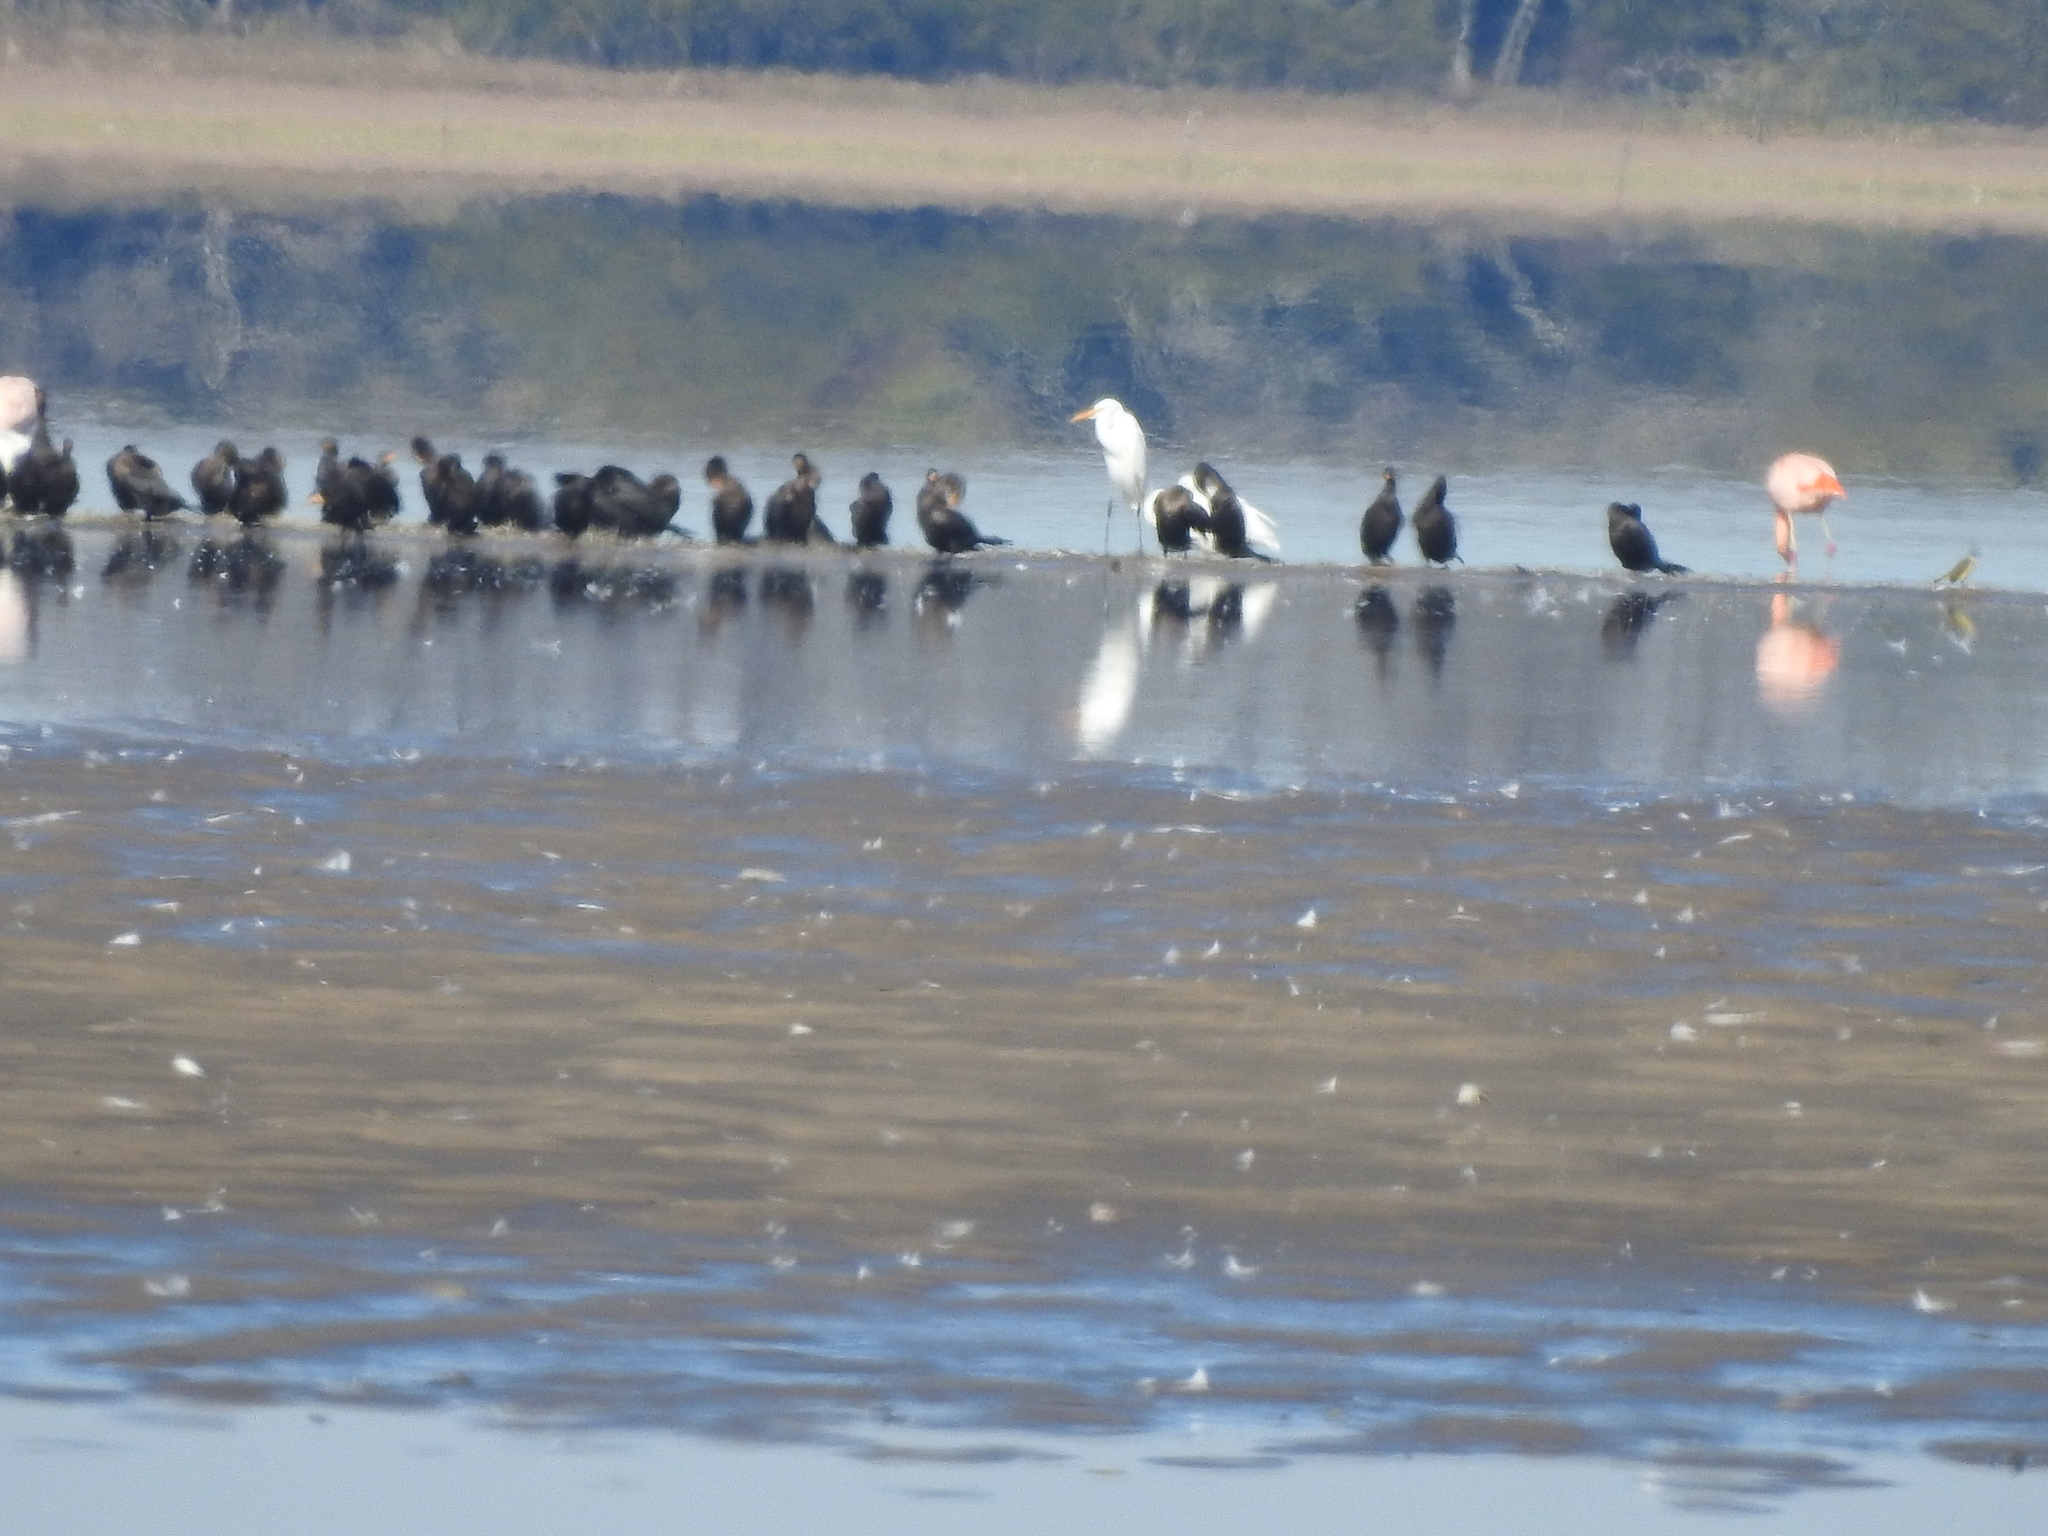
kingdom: Animalia
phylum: Chordata
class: Aves
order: Pelecaniformes
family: Ardeidae
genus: Ardea
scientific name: Ardea alba
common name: Great egret
